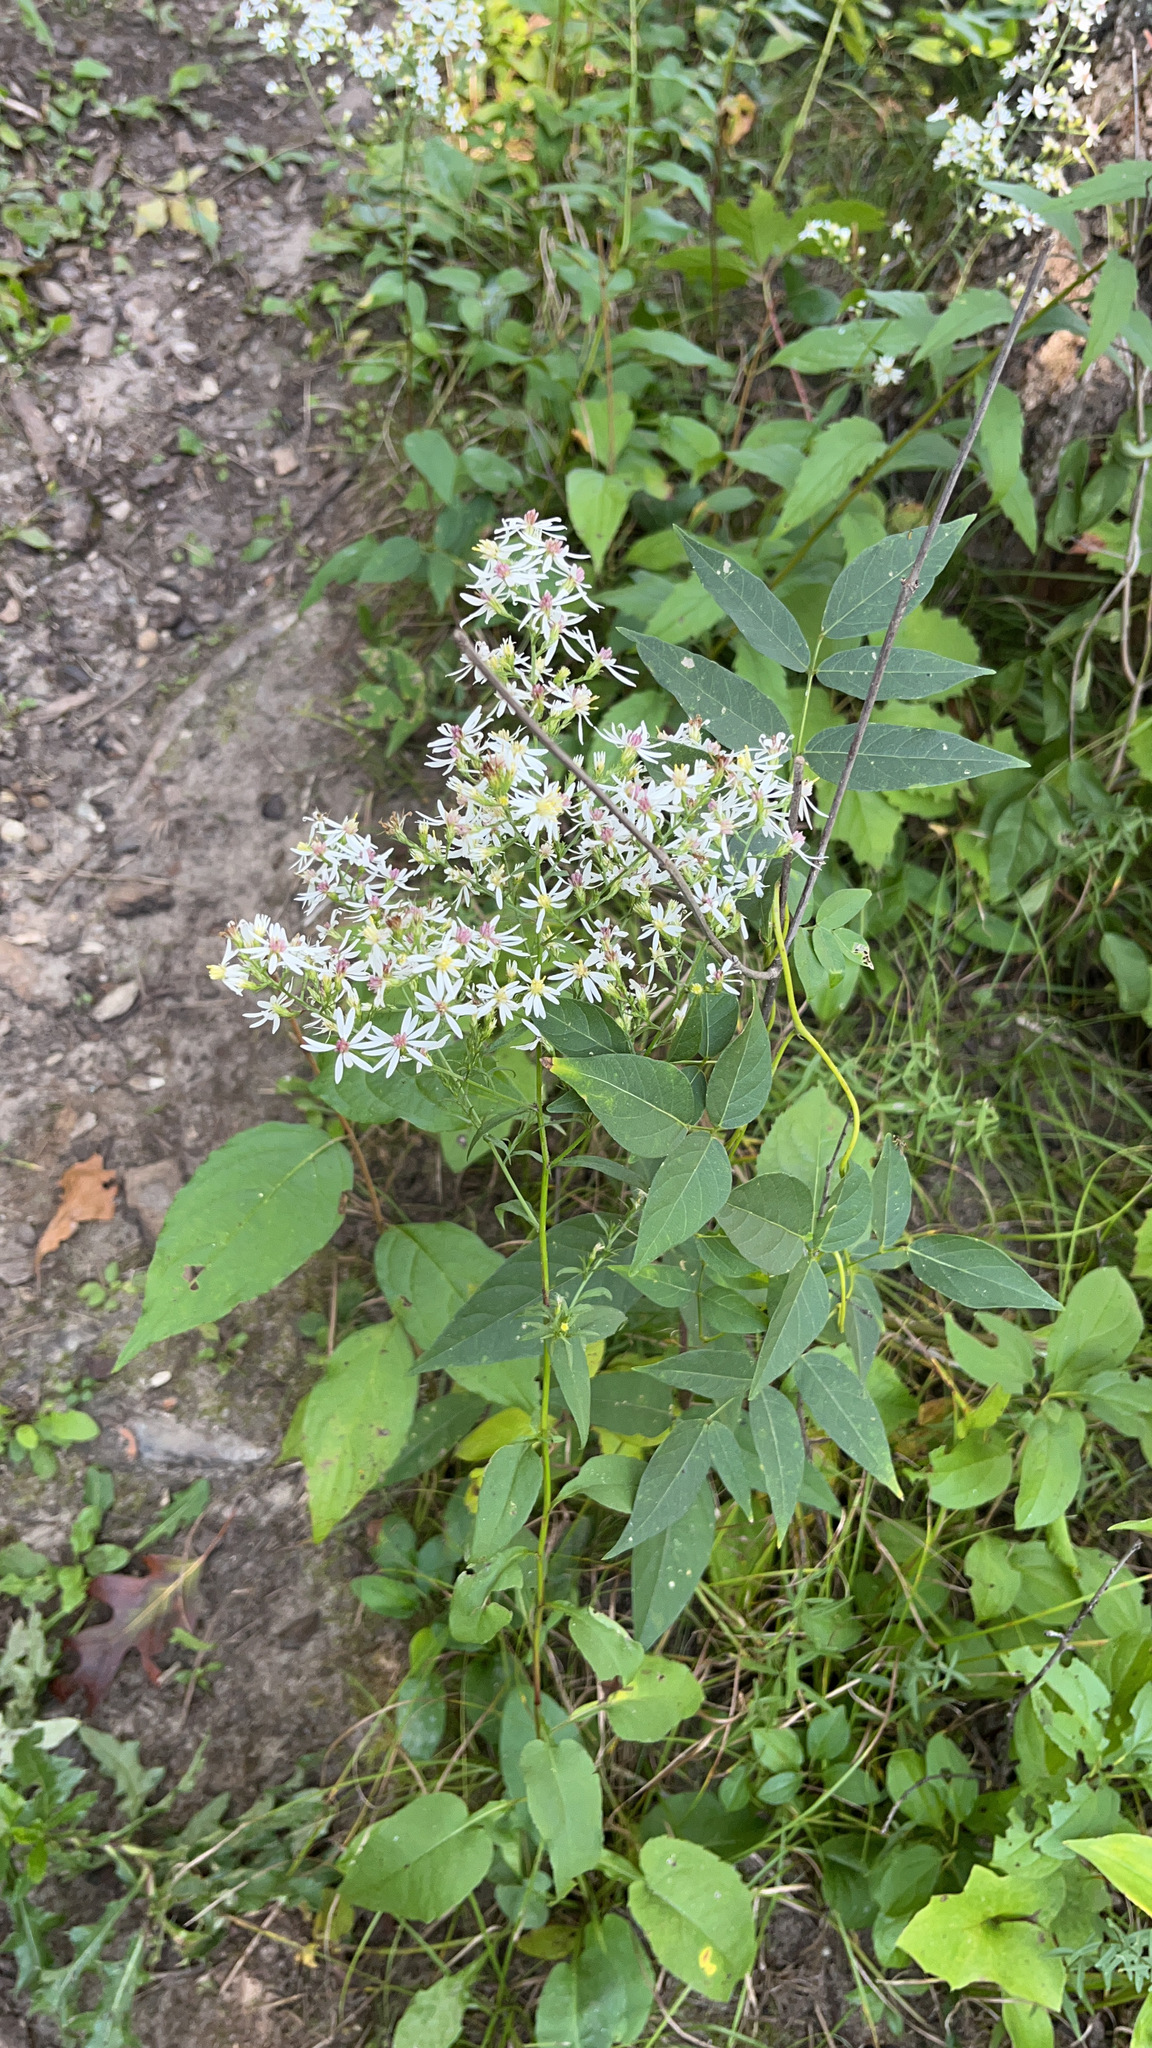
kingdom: Plantae
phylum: Tracheophyta
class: Magnoliopsida
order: Asterales
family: Asteraceae
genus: Symphyotrichum
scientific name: Symphyotrichum urophyllum
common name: Arrow-leaved aster
